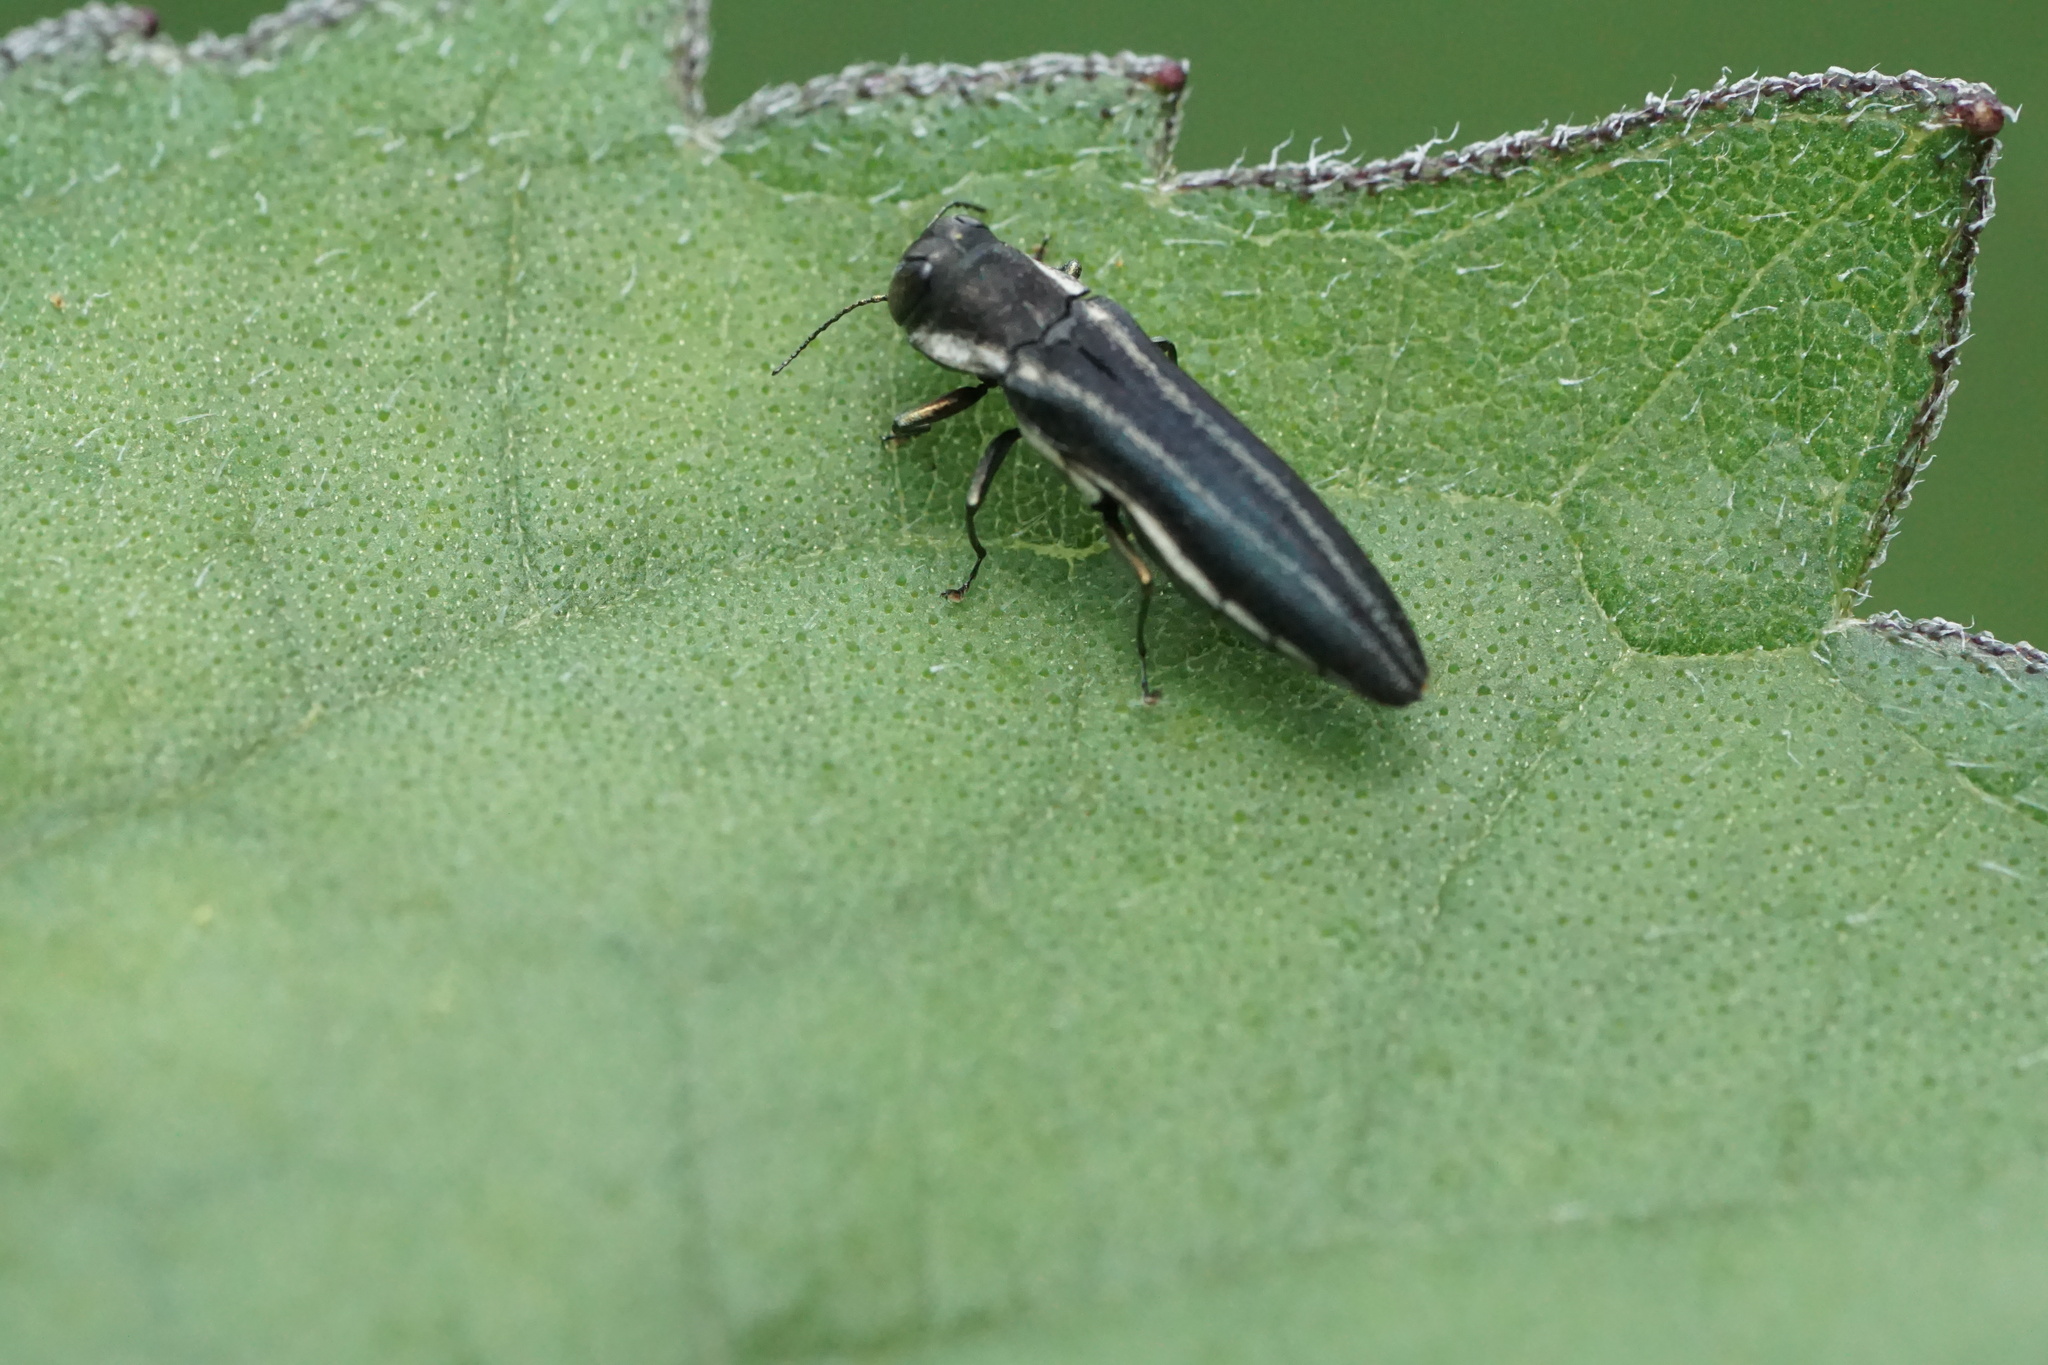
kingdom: Animalia
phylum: Arthropoda
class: Insecta
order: Coleoptera
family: Buprestidae
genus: Agrilus
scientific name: Agrilus bilineatus
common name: Two-lined chestnut borer
